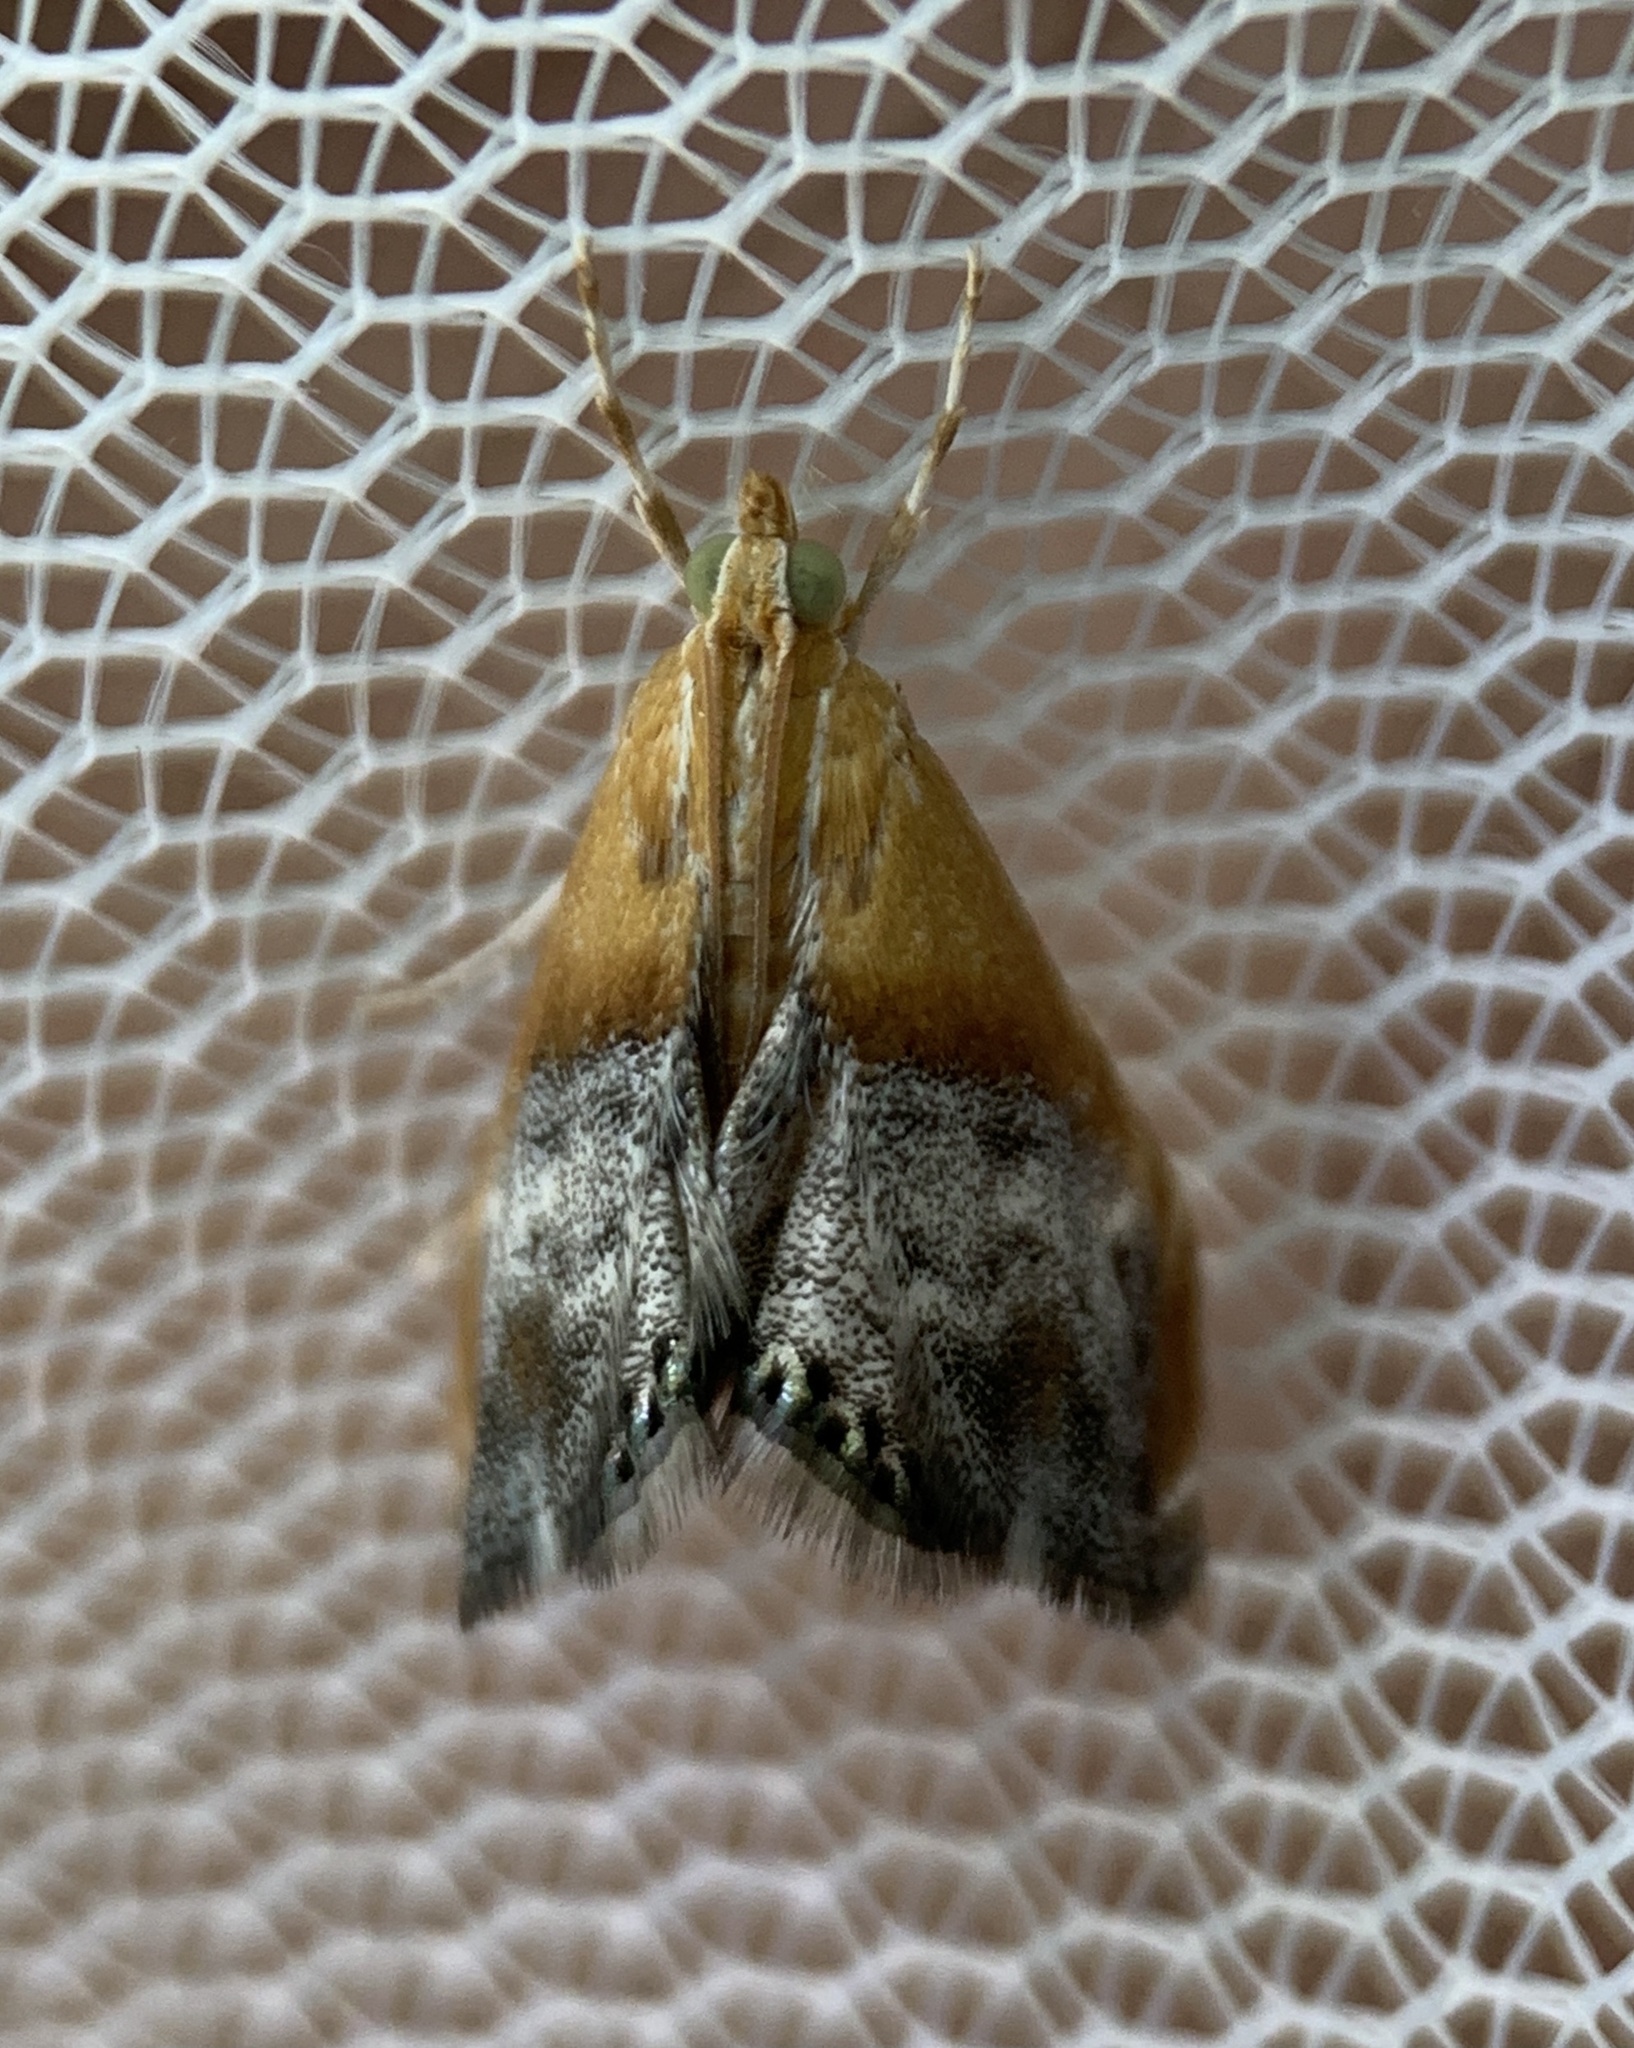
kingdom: Animalia
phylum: Arthropoda
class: Insecta
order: Lepidoptera
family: Crambidae
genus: Chalcoela
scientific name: Chalcoela iphitalis
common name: Sooty-winged chalcoela moth
